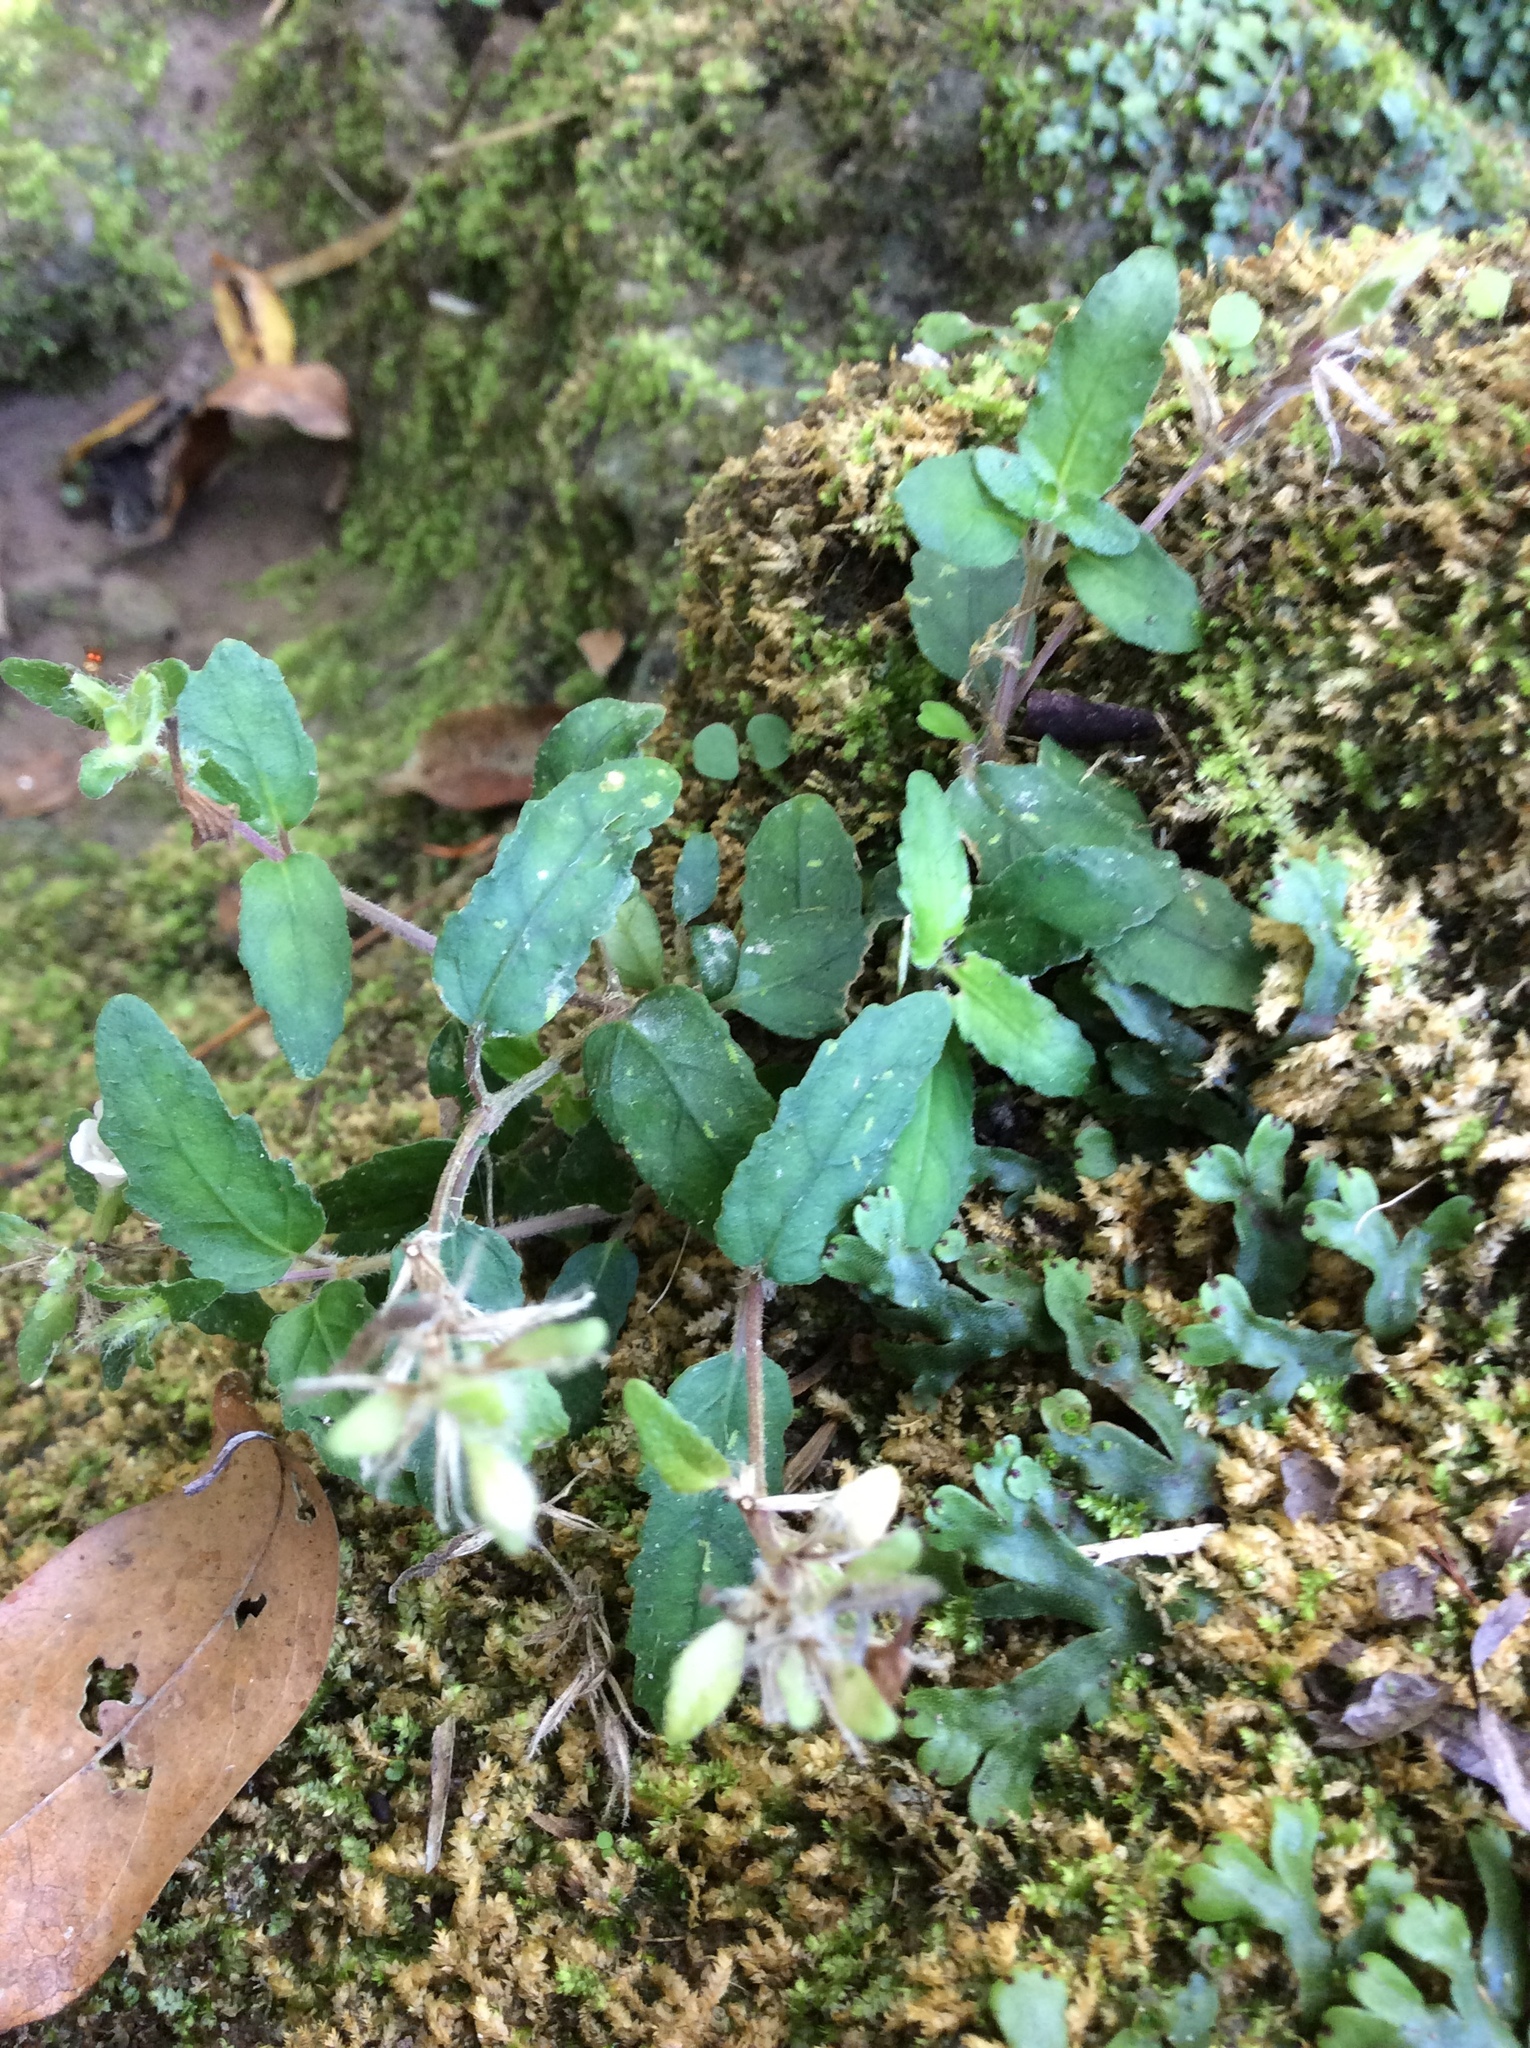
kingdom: Plantae
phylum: Tracheophyta
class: Magnoliopsida
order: Lamiales
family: Acanthaceae
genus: Strobilanthes
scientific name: Strobilanthes reptans
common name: Acanthaceae
